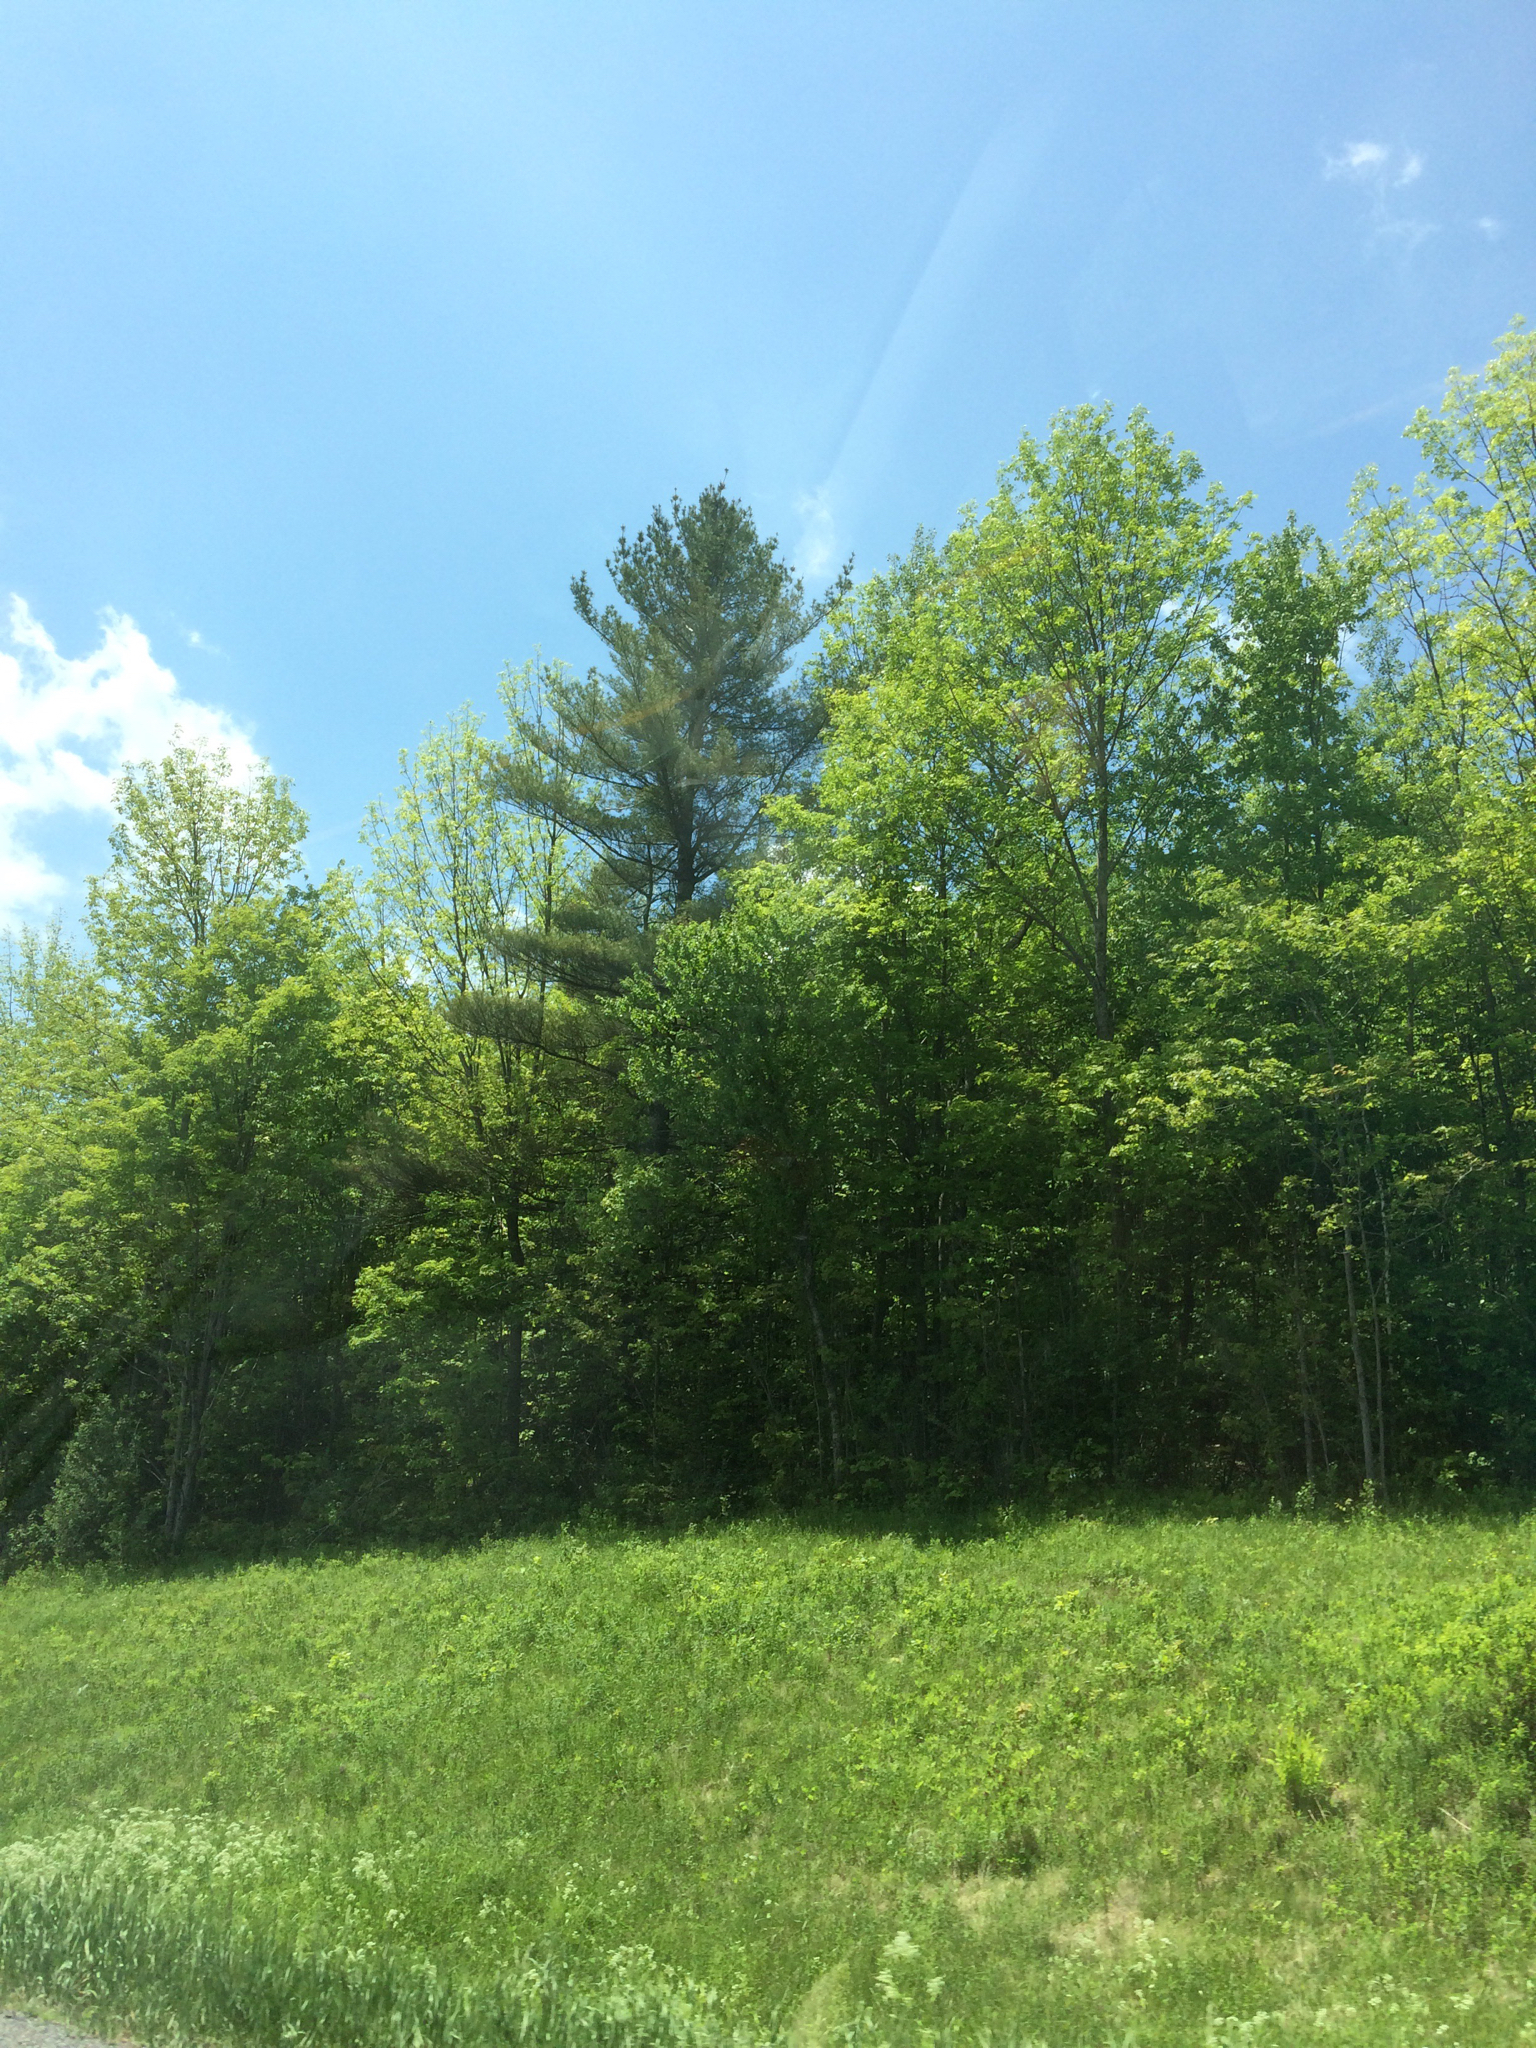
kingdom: Plantae
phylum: Tracheophyta
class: Pinopsida
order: Pinales
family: Pinaceae
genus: Pinus
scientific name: Pinus strobus
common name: Weymouth pine
